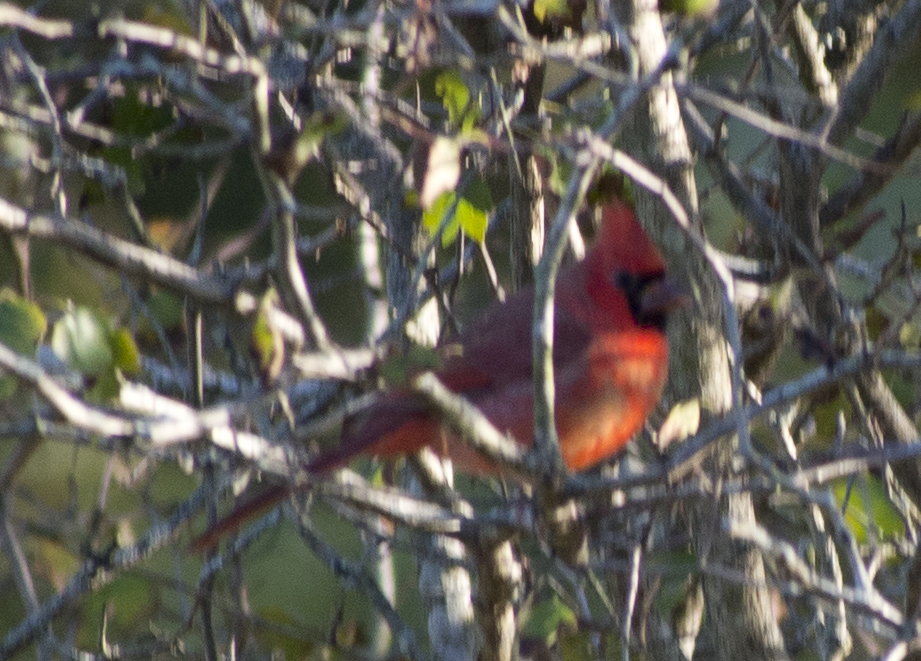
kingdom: Animalia
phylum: Chordata
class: Aves
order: Passeriformes
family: Cardinalidae
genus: Cardinalis
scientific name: Cardinalis cardinalis
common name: Northern cardinal
